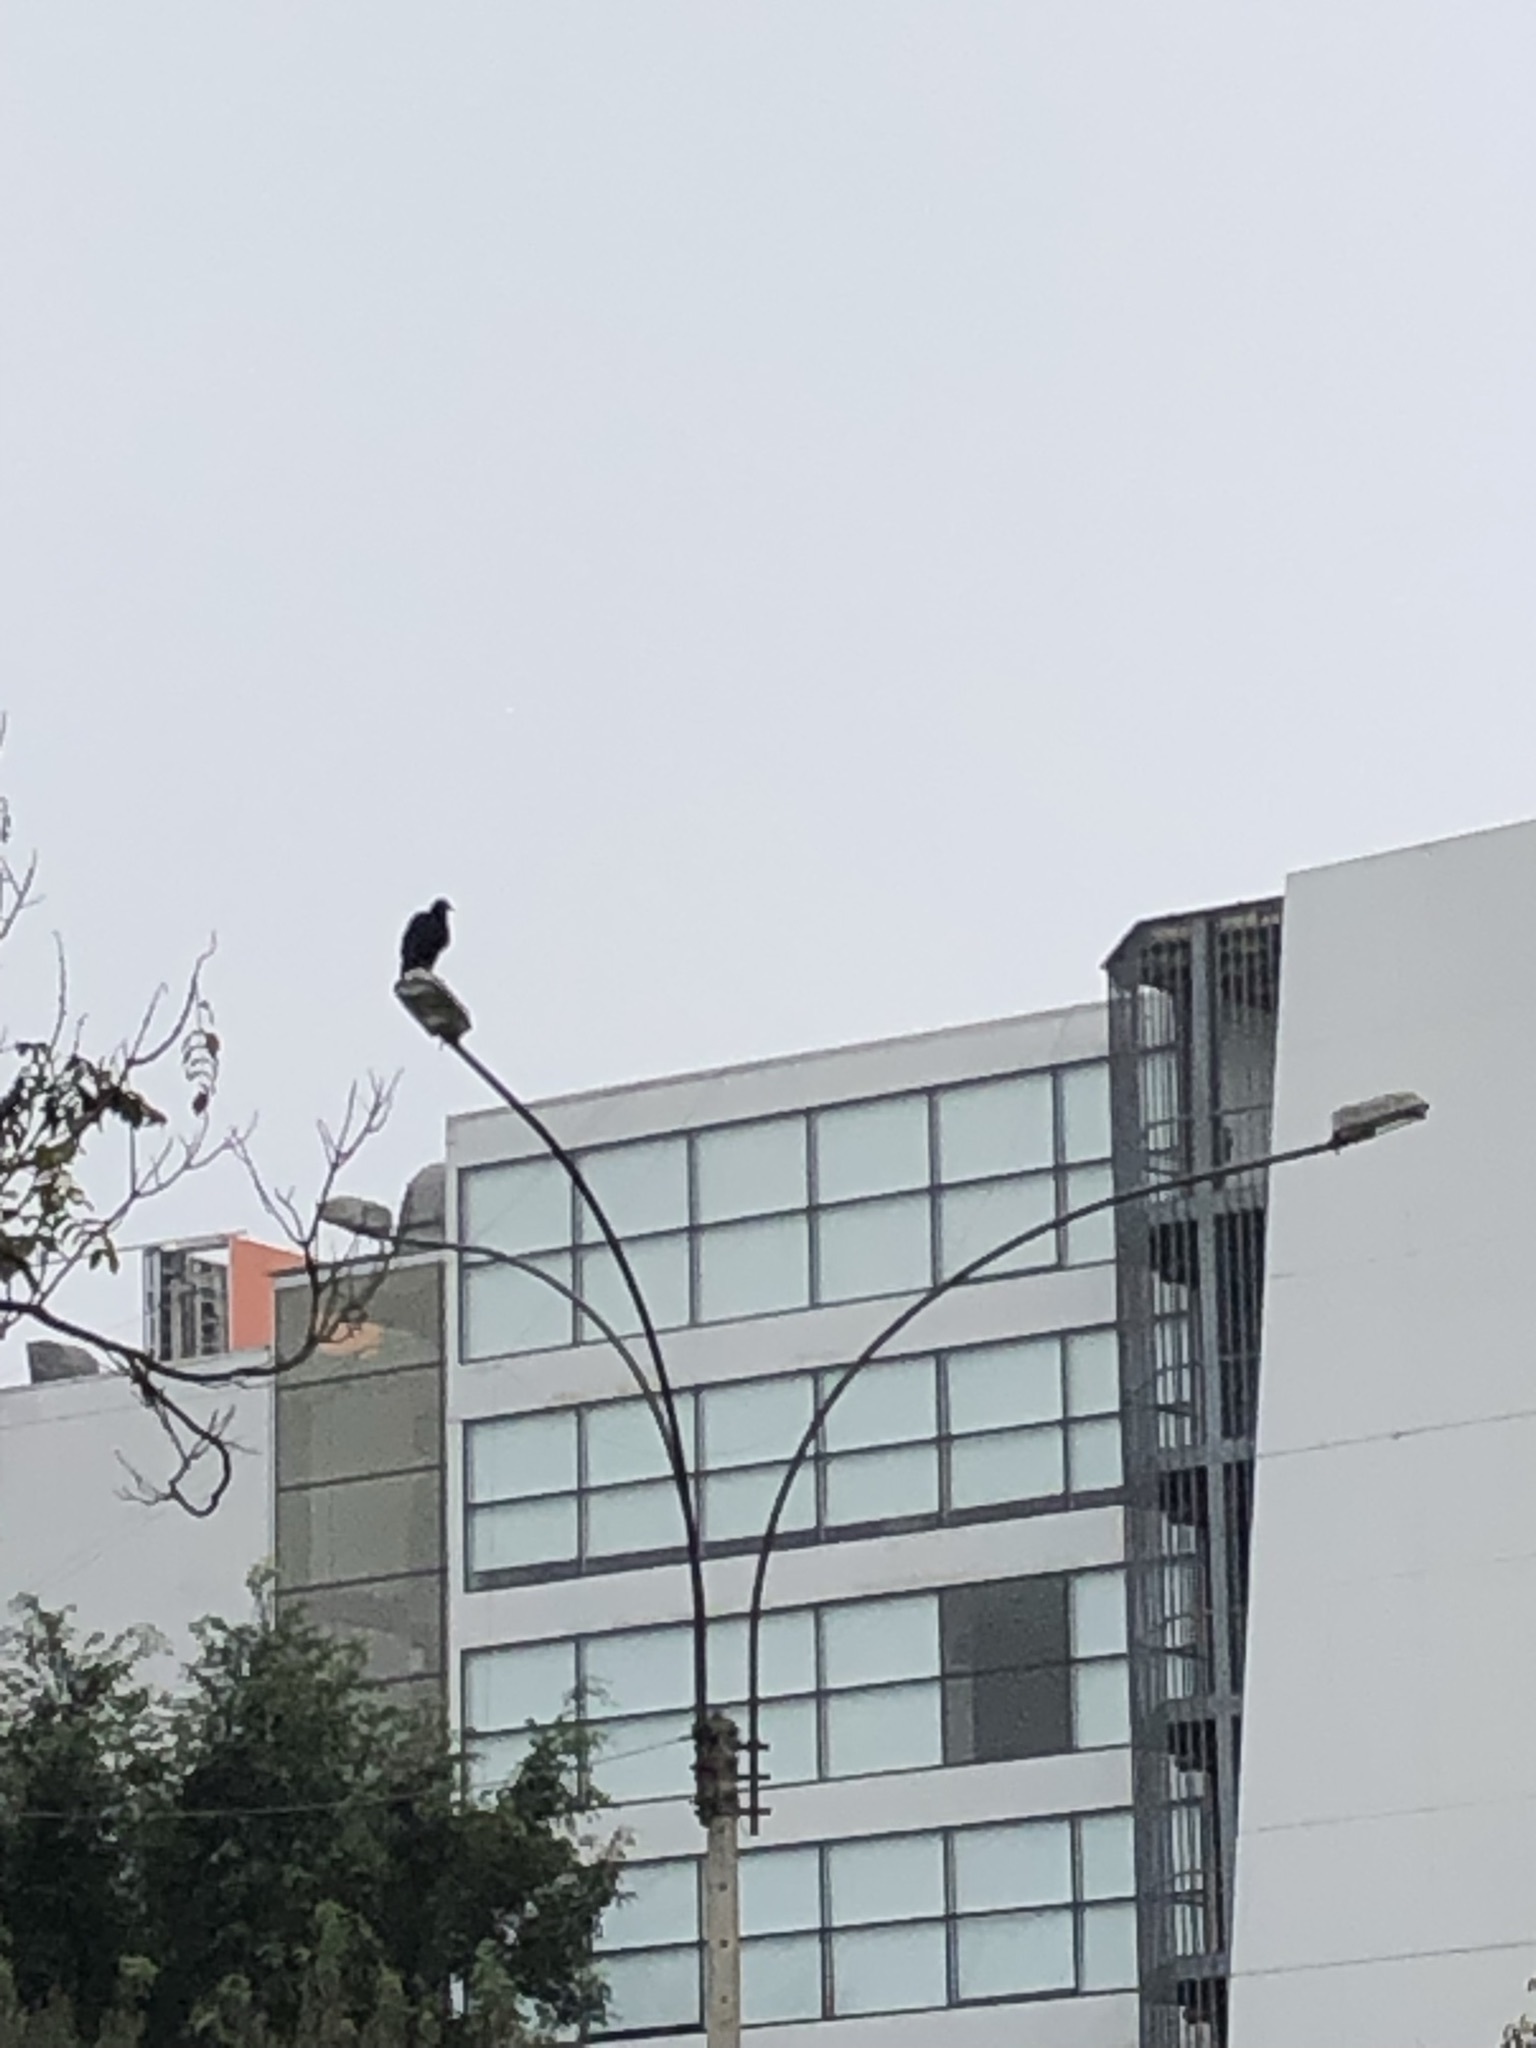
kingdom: Animalia
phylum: Chordata
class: Aves
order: Accipitriformes
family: Cathartidae
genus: Coragyps
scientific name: Coragyps atratus
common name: Black vulture
